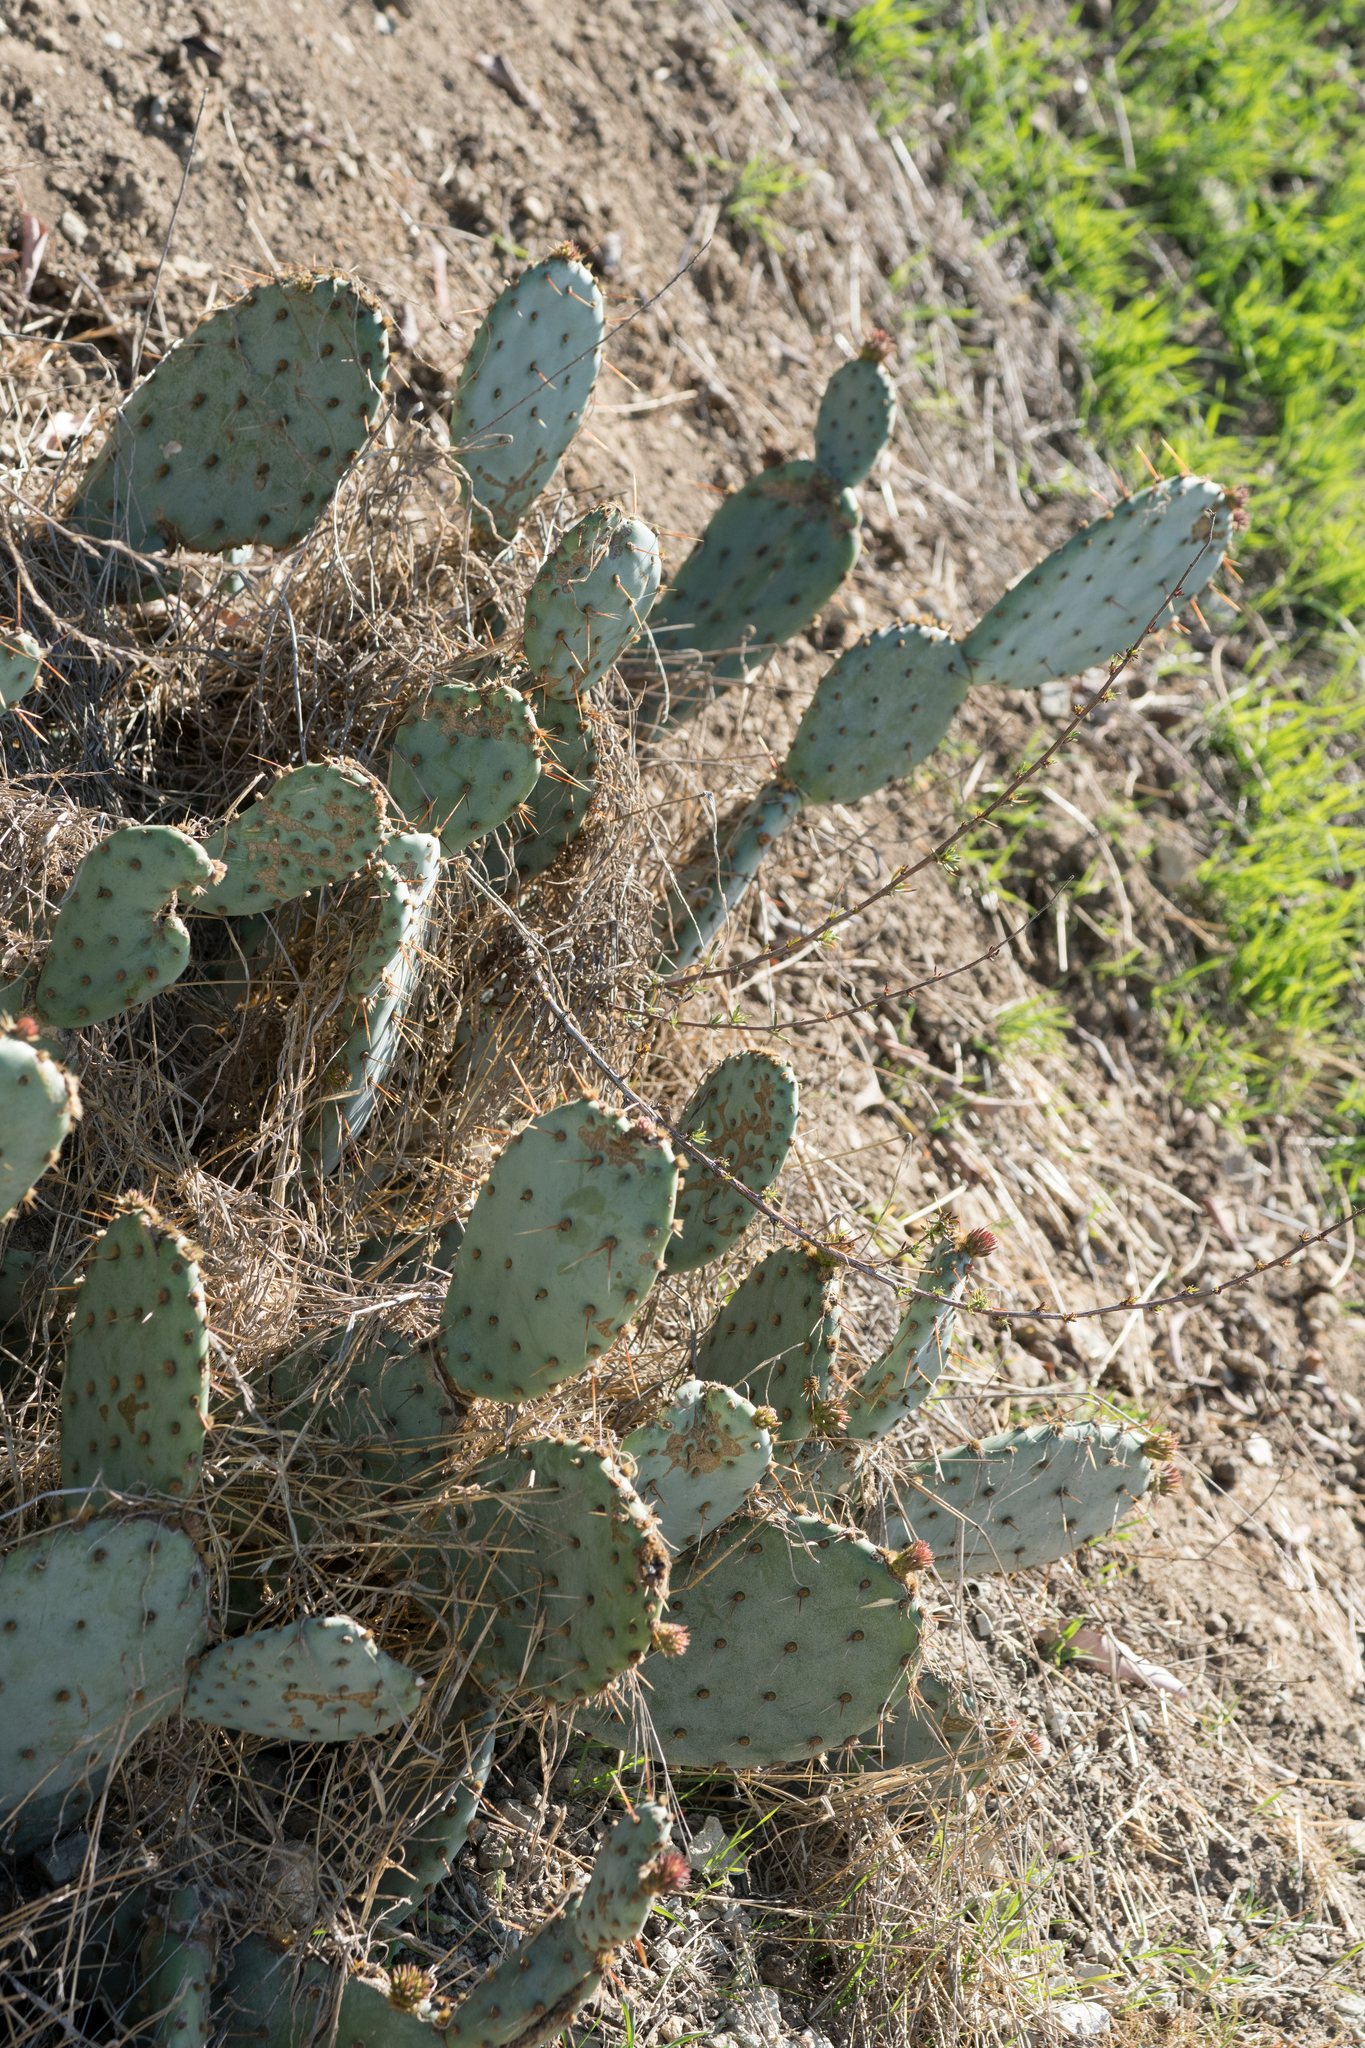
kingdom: Plantae
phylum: Tracheophyta
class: Magnoliopsida
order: Caryophyllales
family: Cactaceae
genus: Opuntia
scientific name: Opuntia littoralis
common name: Coastal prickly-pear
